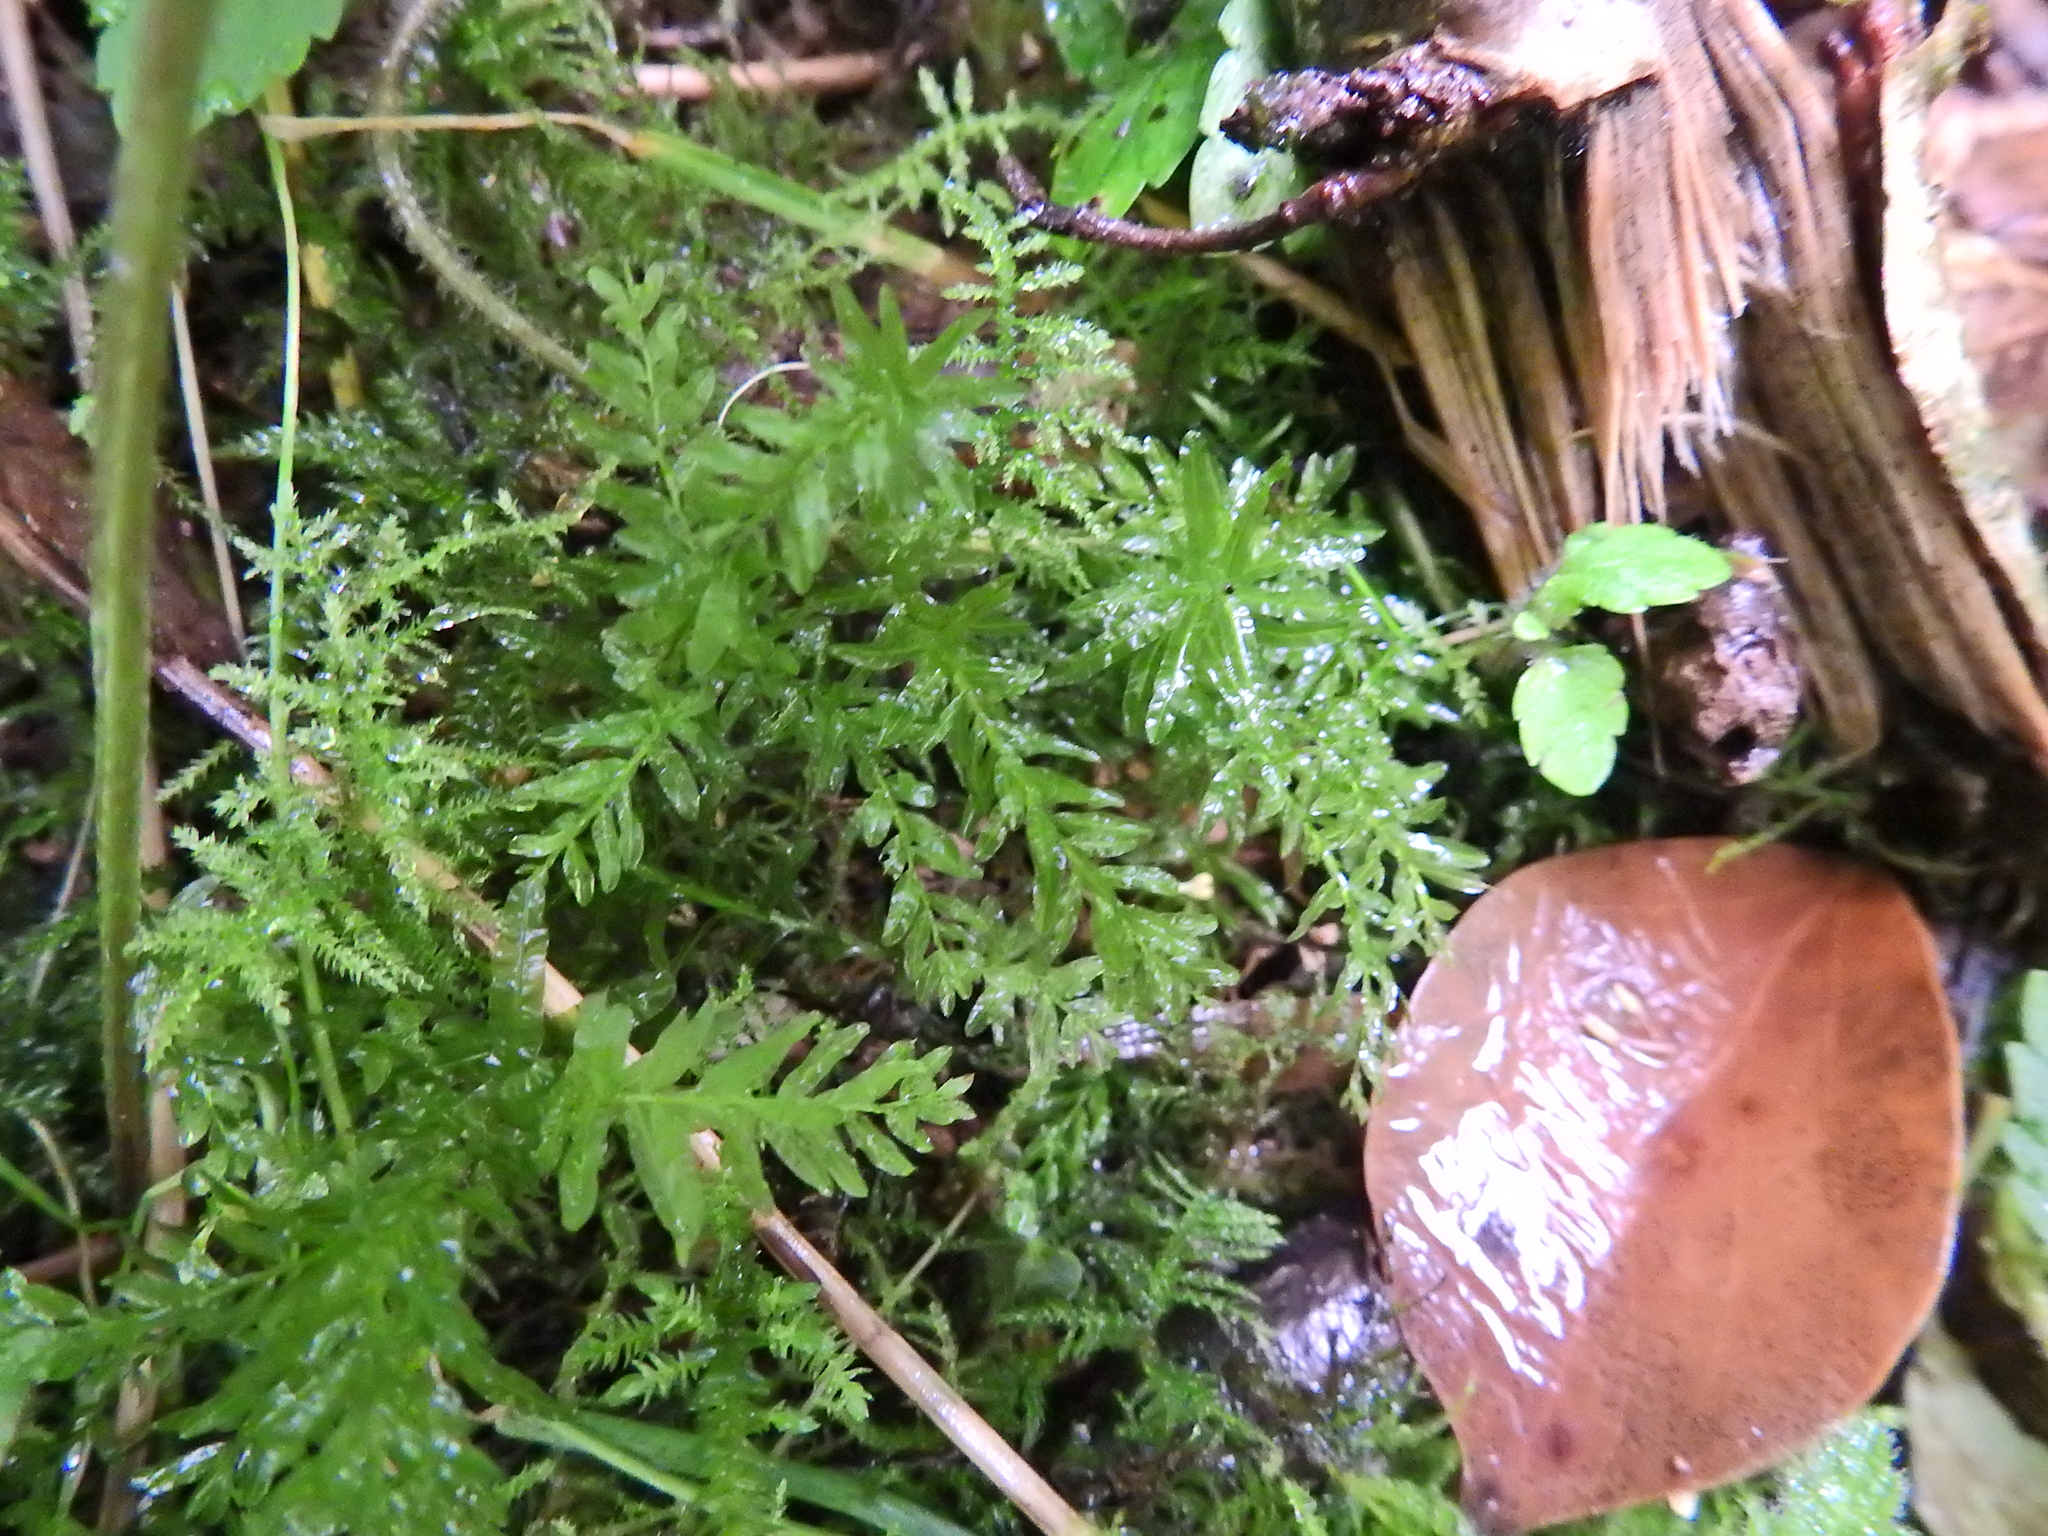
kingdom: Plantae
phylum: Bryophyta
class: Bryopsida
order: Bryales
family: Mniaceae
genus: Plagiomnium
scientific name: Plagiomnium undulatum
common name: Hart's-tongue thyme-moss
